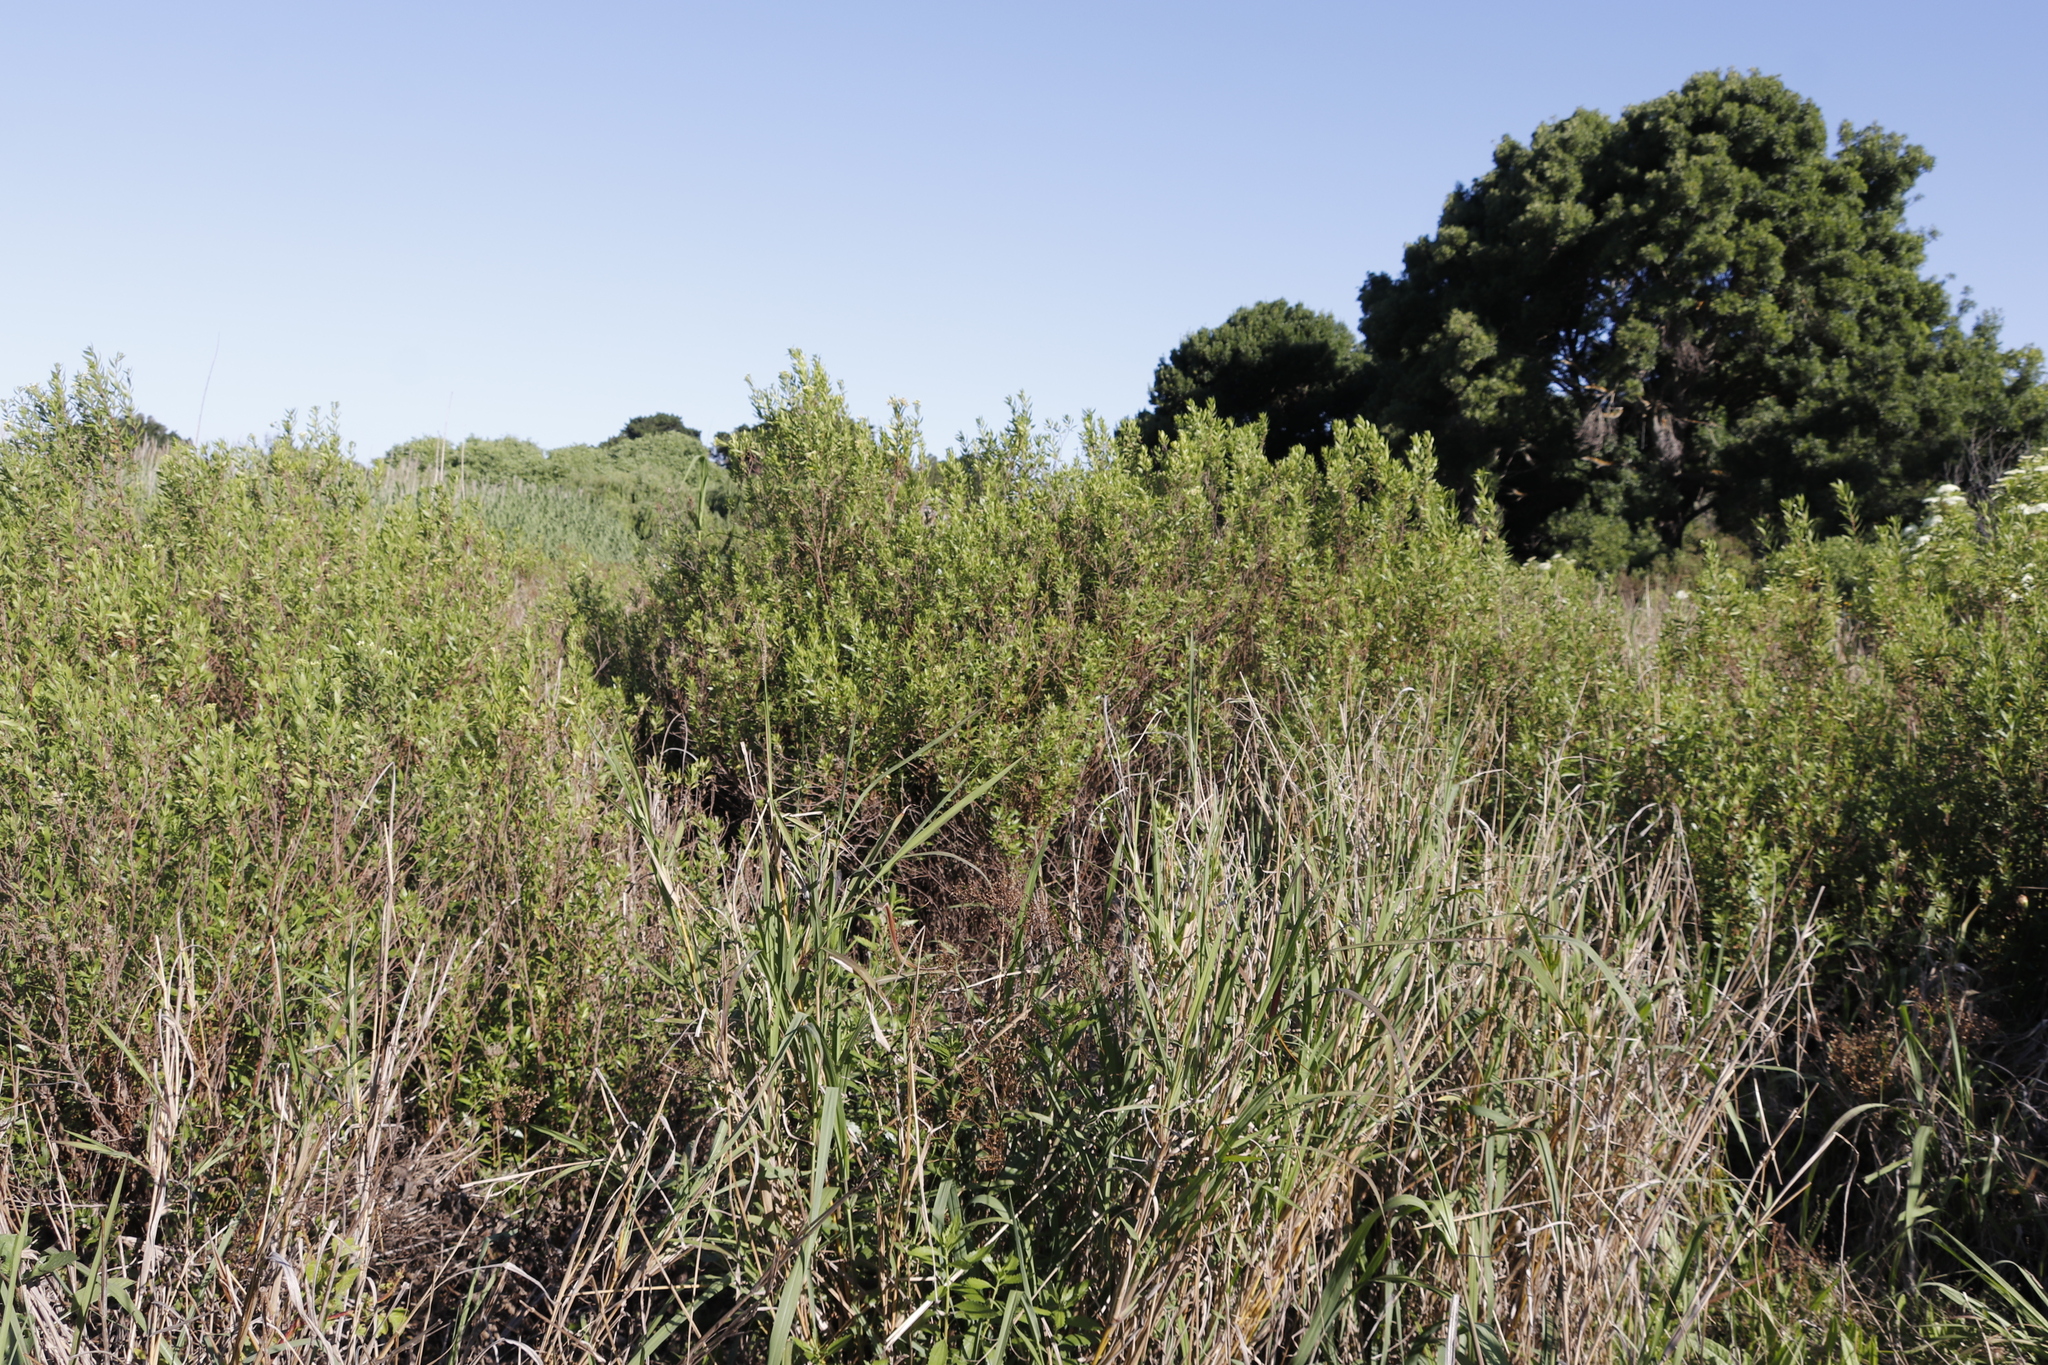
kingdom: Plantae
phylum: Tracheophyta
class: Magnoliopsida
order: Asterales
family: Asteraceae
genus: Nidorella
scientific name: Nidorella ivifolia
